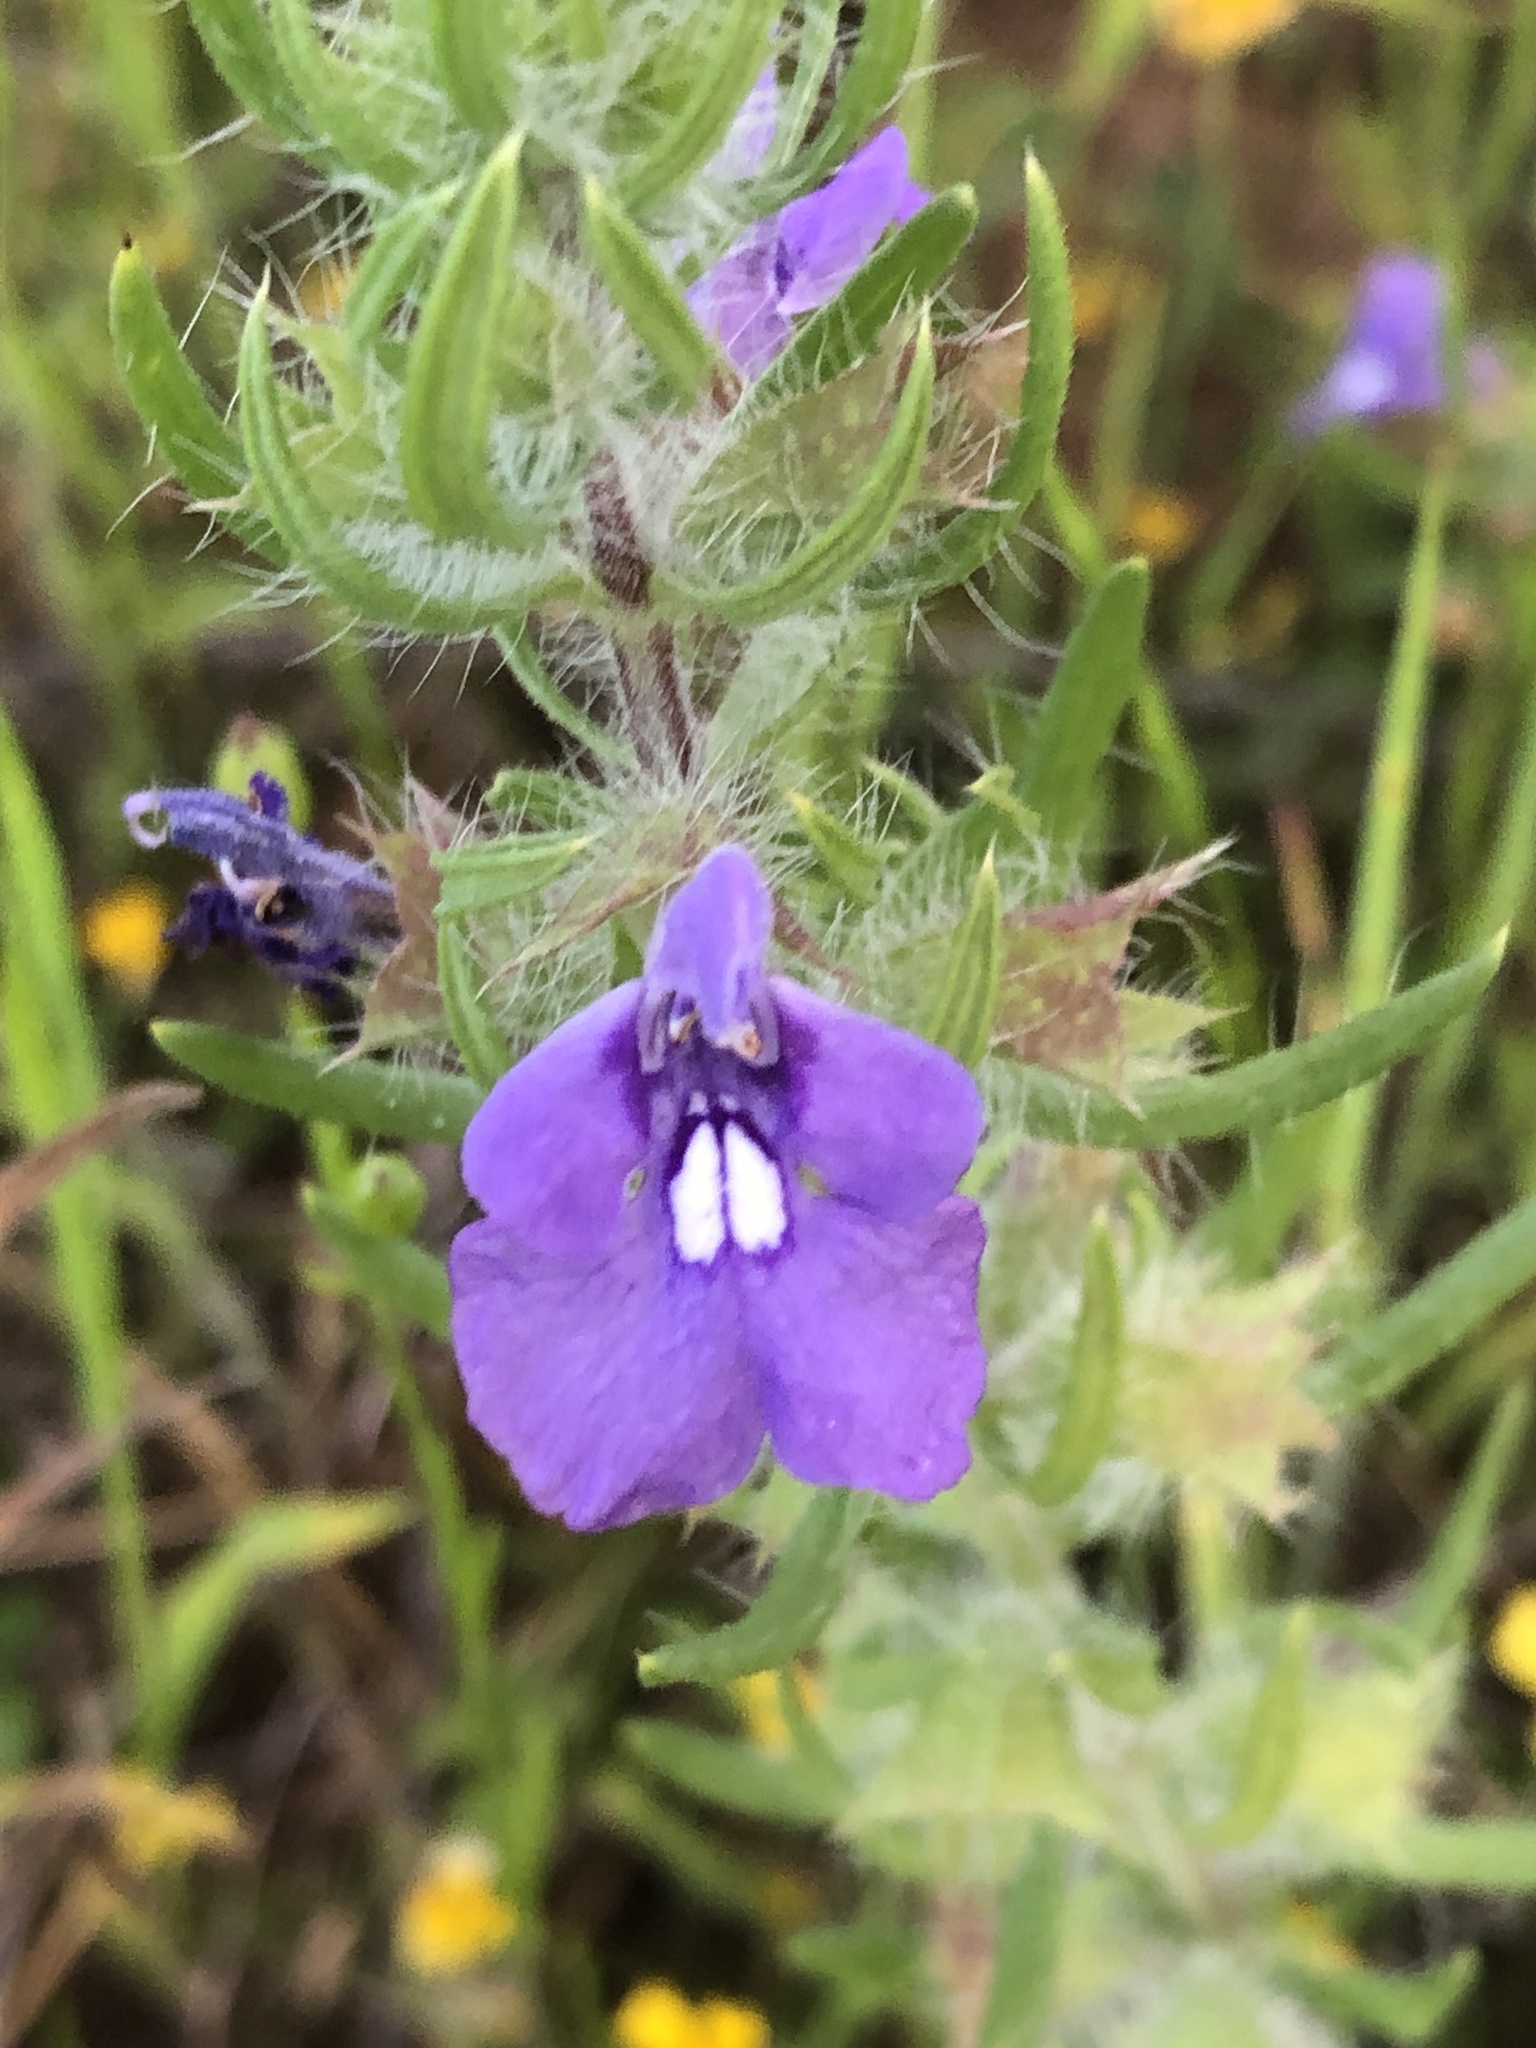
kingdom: Plantae
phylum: Tracheophyta
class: Magnoliopsida
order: Lamiales
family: Lamiaceae
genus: Salvia
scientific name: Salvia texana
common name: Texas sage
